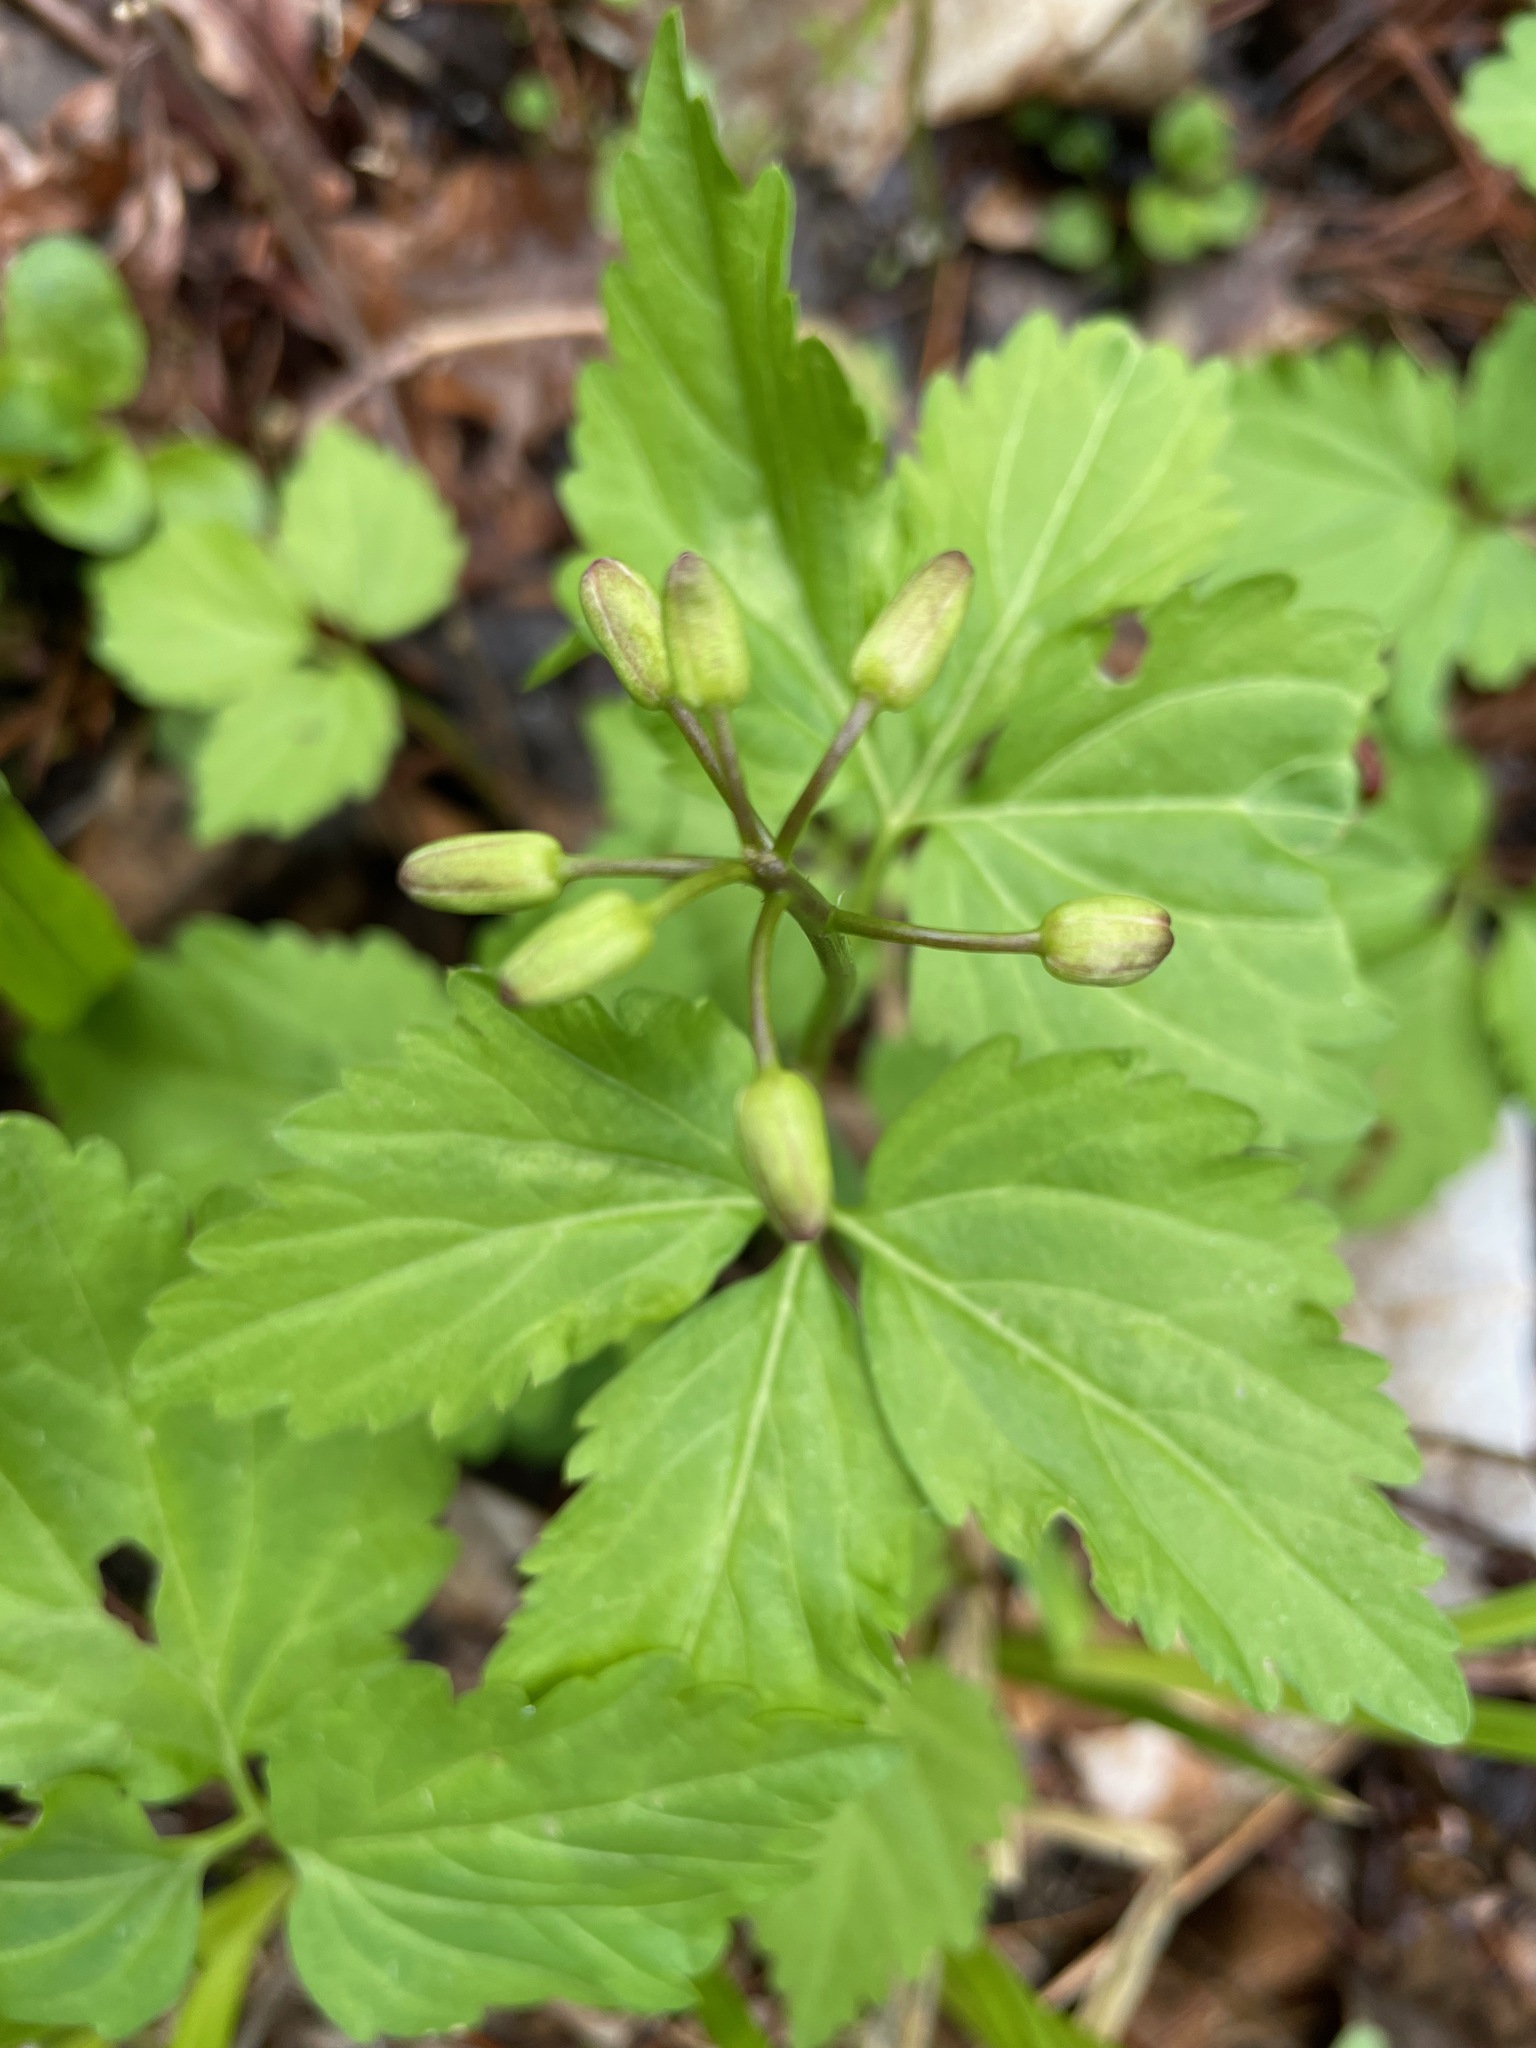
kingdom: Plantae
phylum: Tracheophyta
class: Magnoliopsida
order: Brassicales
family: Brassicaceae
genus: Cardamine
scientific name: Cardamine diphylla
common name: Broad-leaved toothwort
